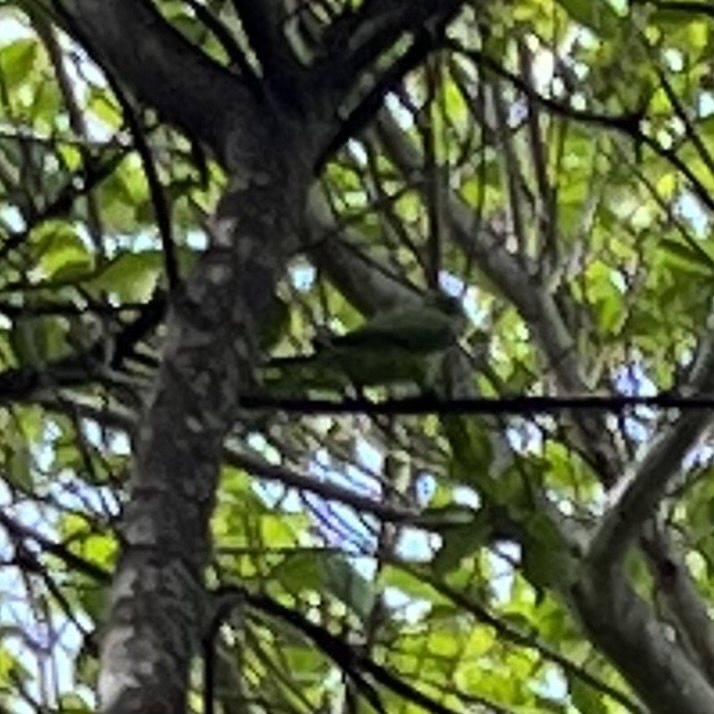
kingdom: Animalia
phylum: Chordata
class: Aves
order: Psittaciformes
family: Psittacidae
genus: Myiopsitta
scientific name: Myiopsitta monachus
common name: Monk parakeet
